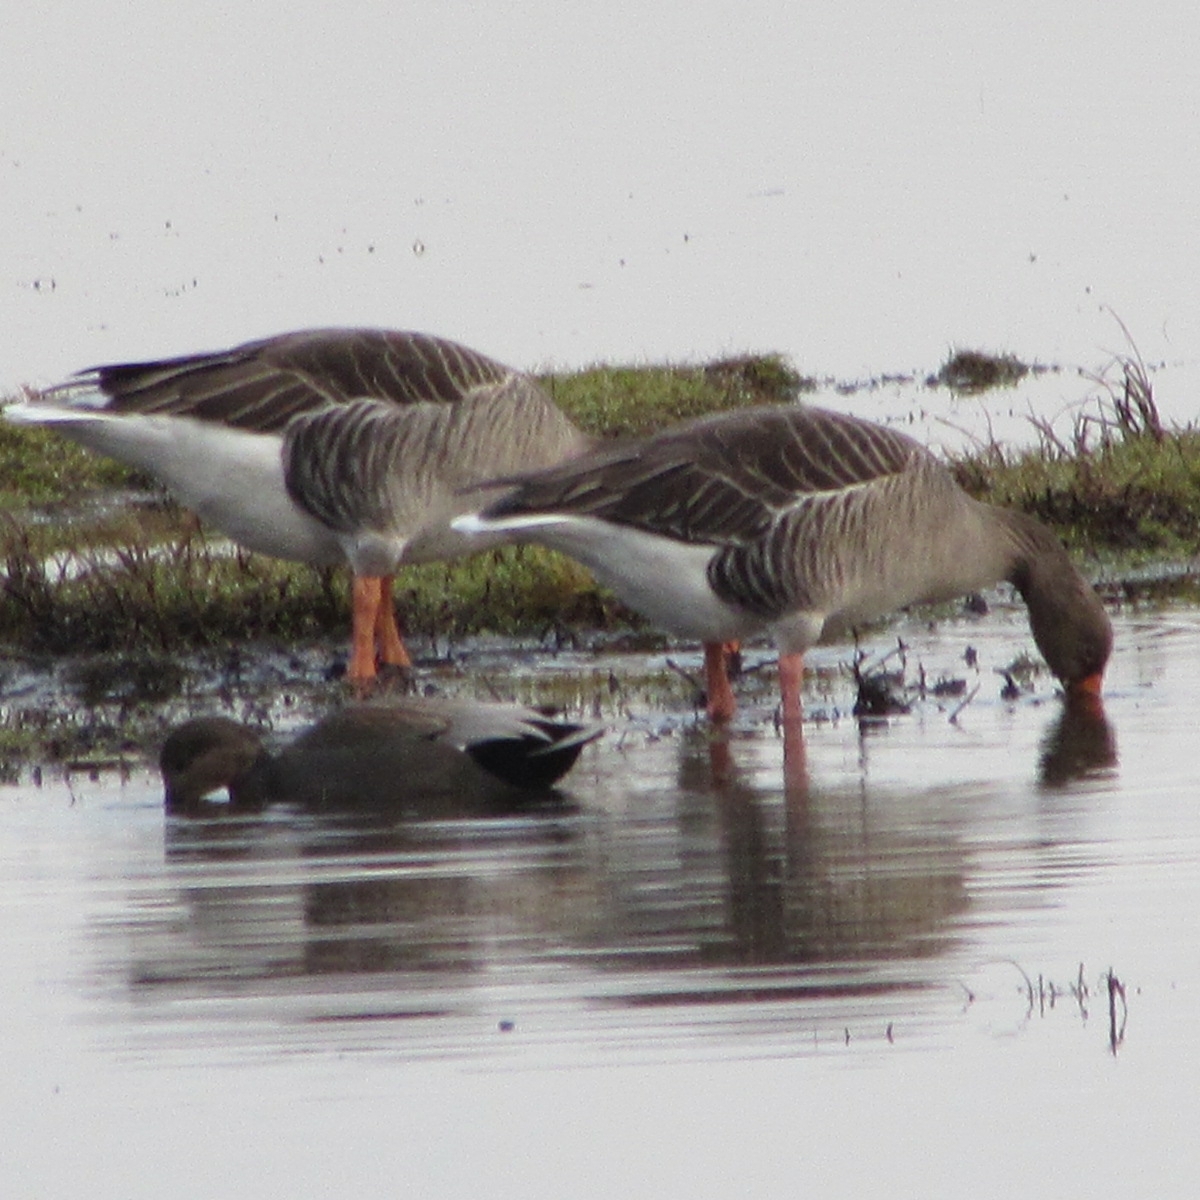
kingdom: Animalia
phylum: Chordata
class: Aves
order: Anseriformes
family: Anatidae
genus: Anser
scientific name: Anser anser
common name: Greylag goose
